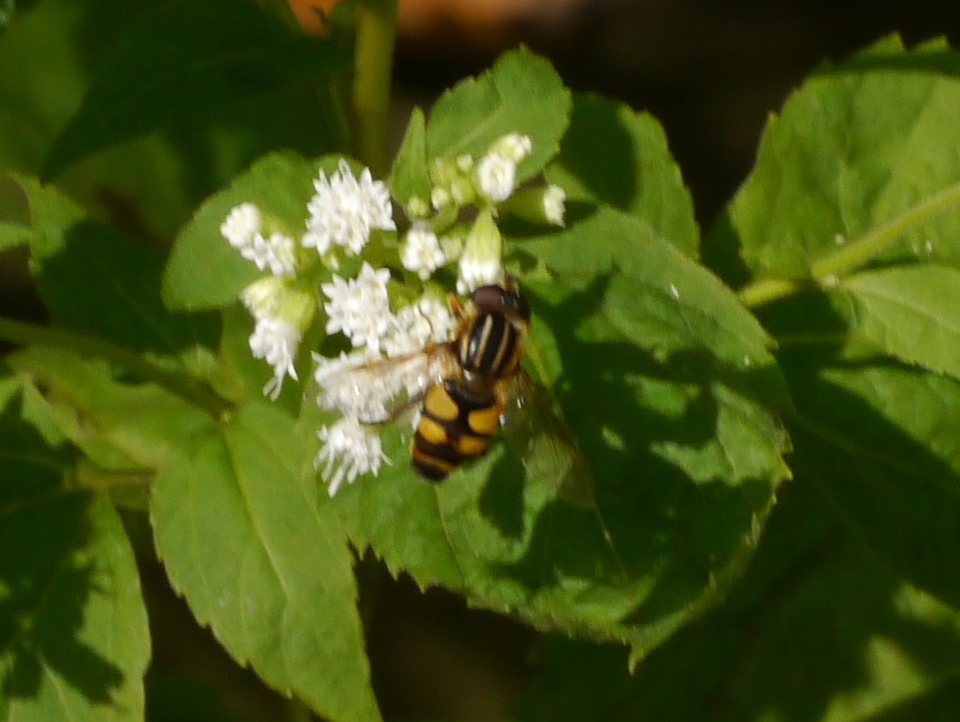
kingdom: Animalia
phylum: Arthropoda
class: Insecta
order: Diptera
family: Syrphidae
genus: Helophilus
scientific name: Helophilus fasciatus
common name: Narrow-headed marsh fly
